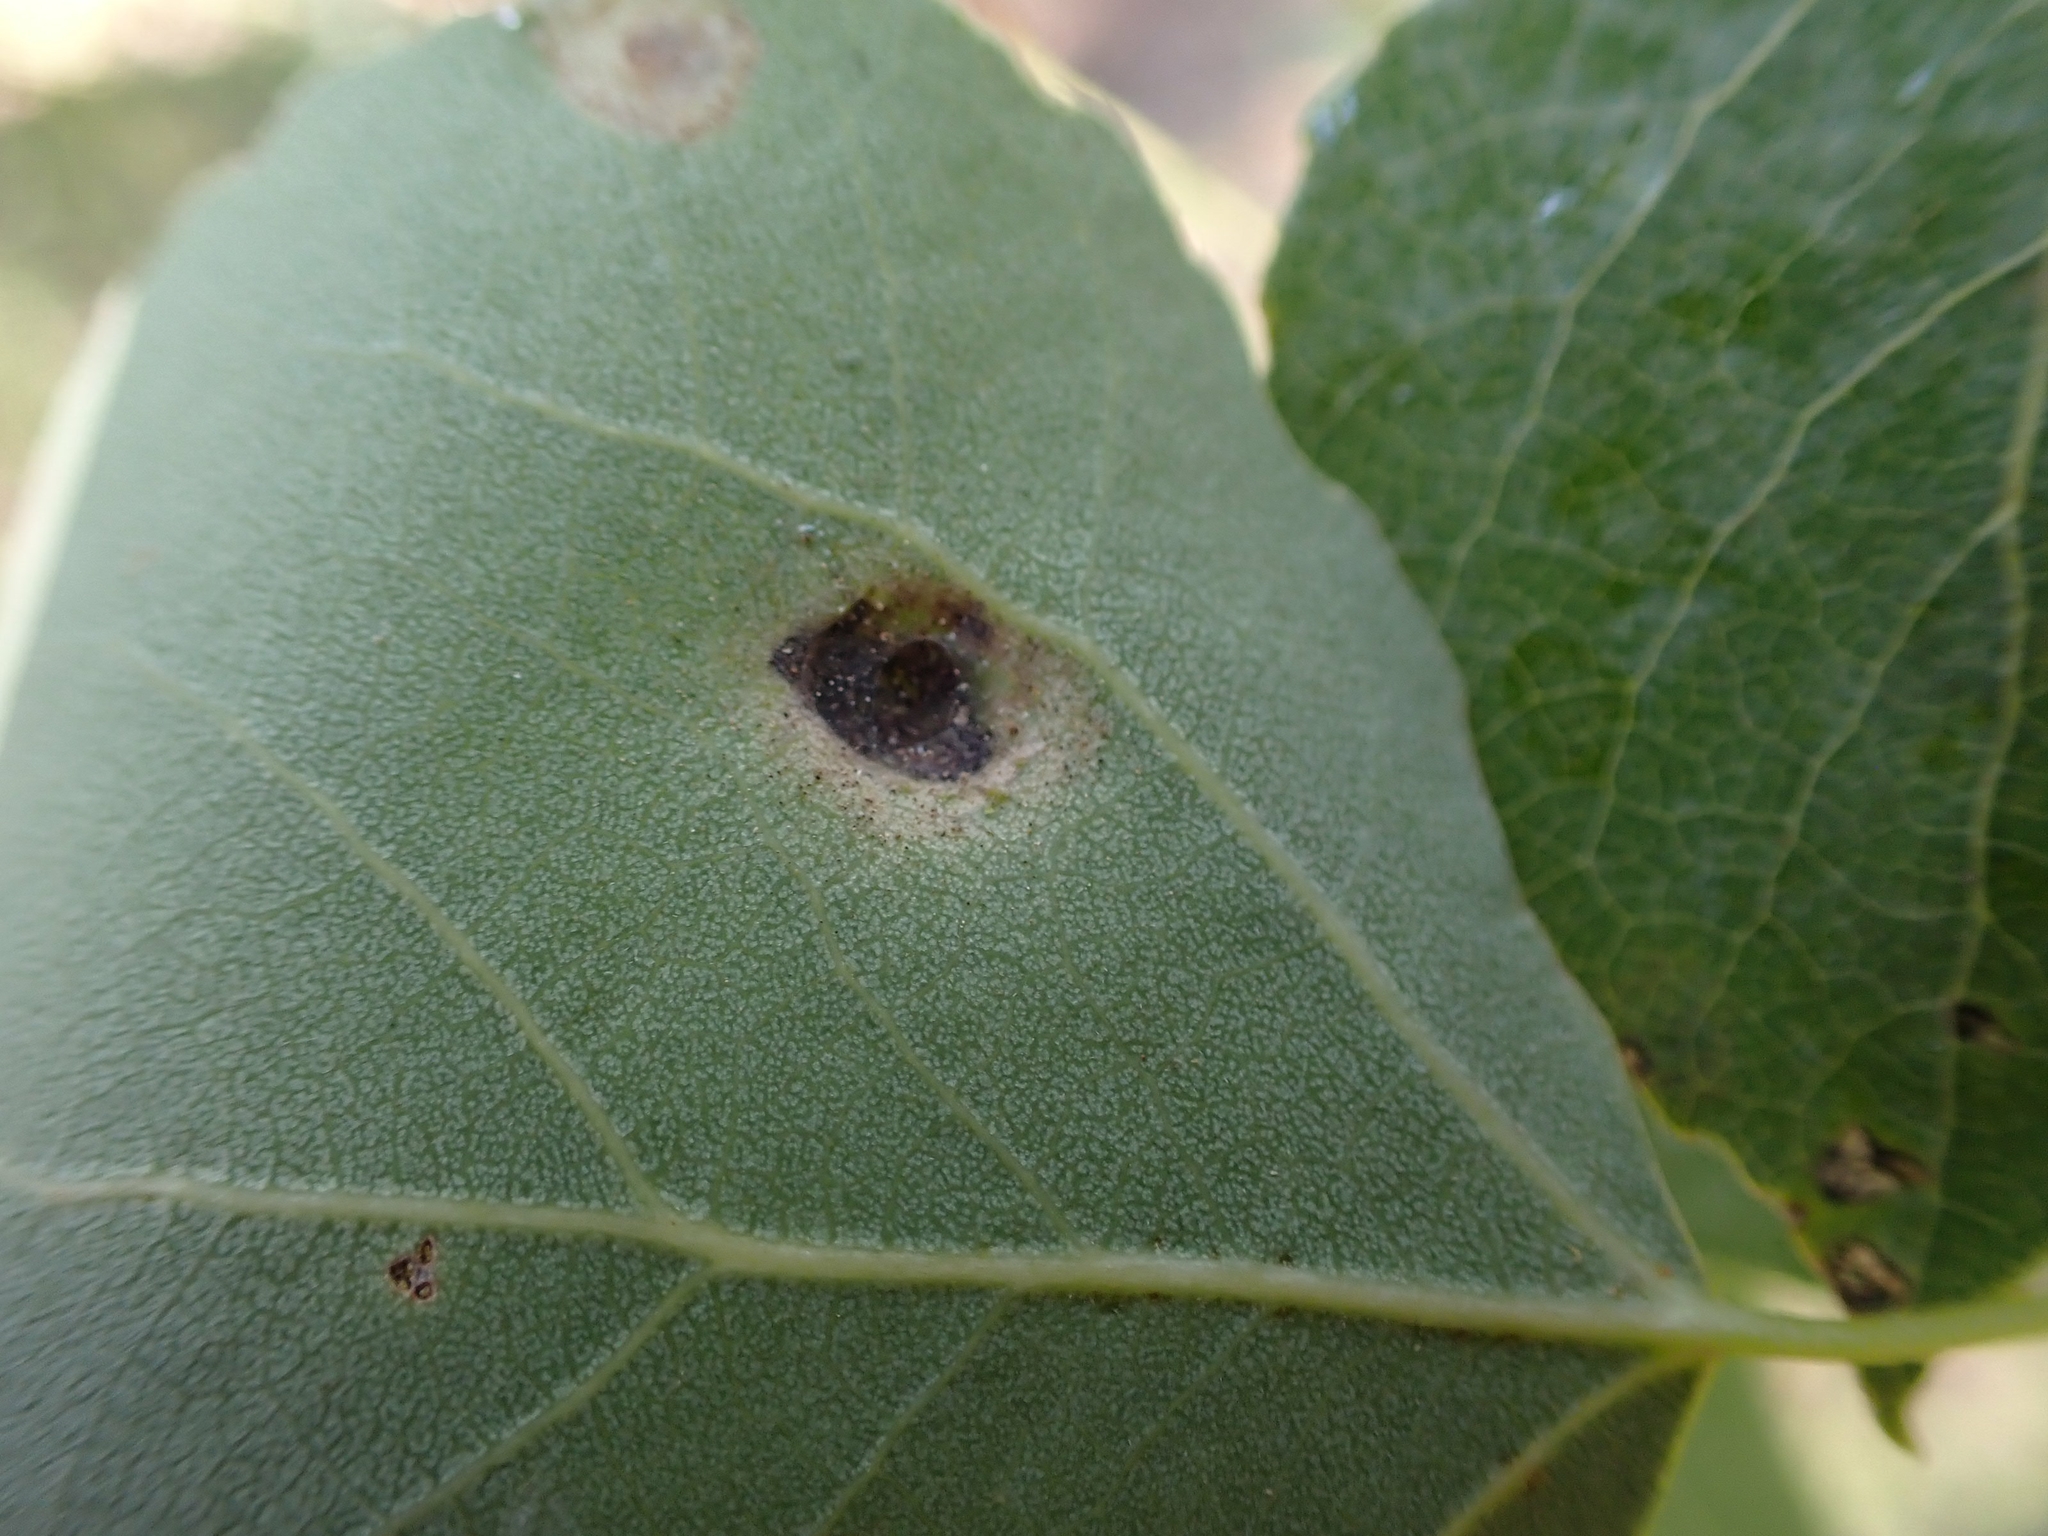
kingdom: Animalia
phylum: Arthropoda
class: Arachnida
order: Trombidiformes
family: Eriophyidae
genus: Phyllocoptes
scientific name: Phyllocoptes
